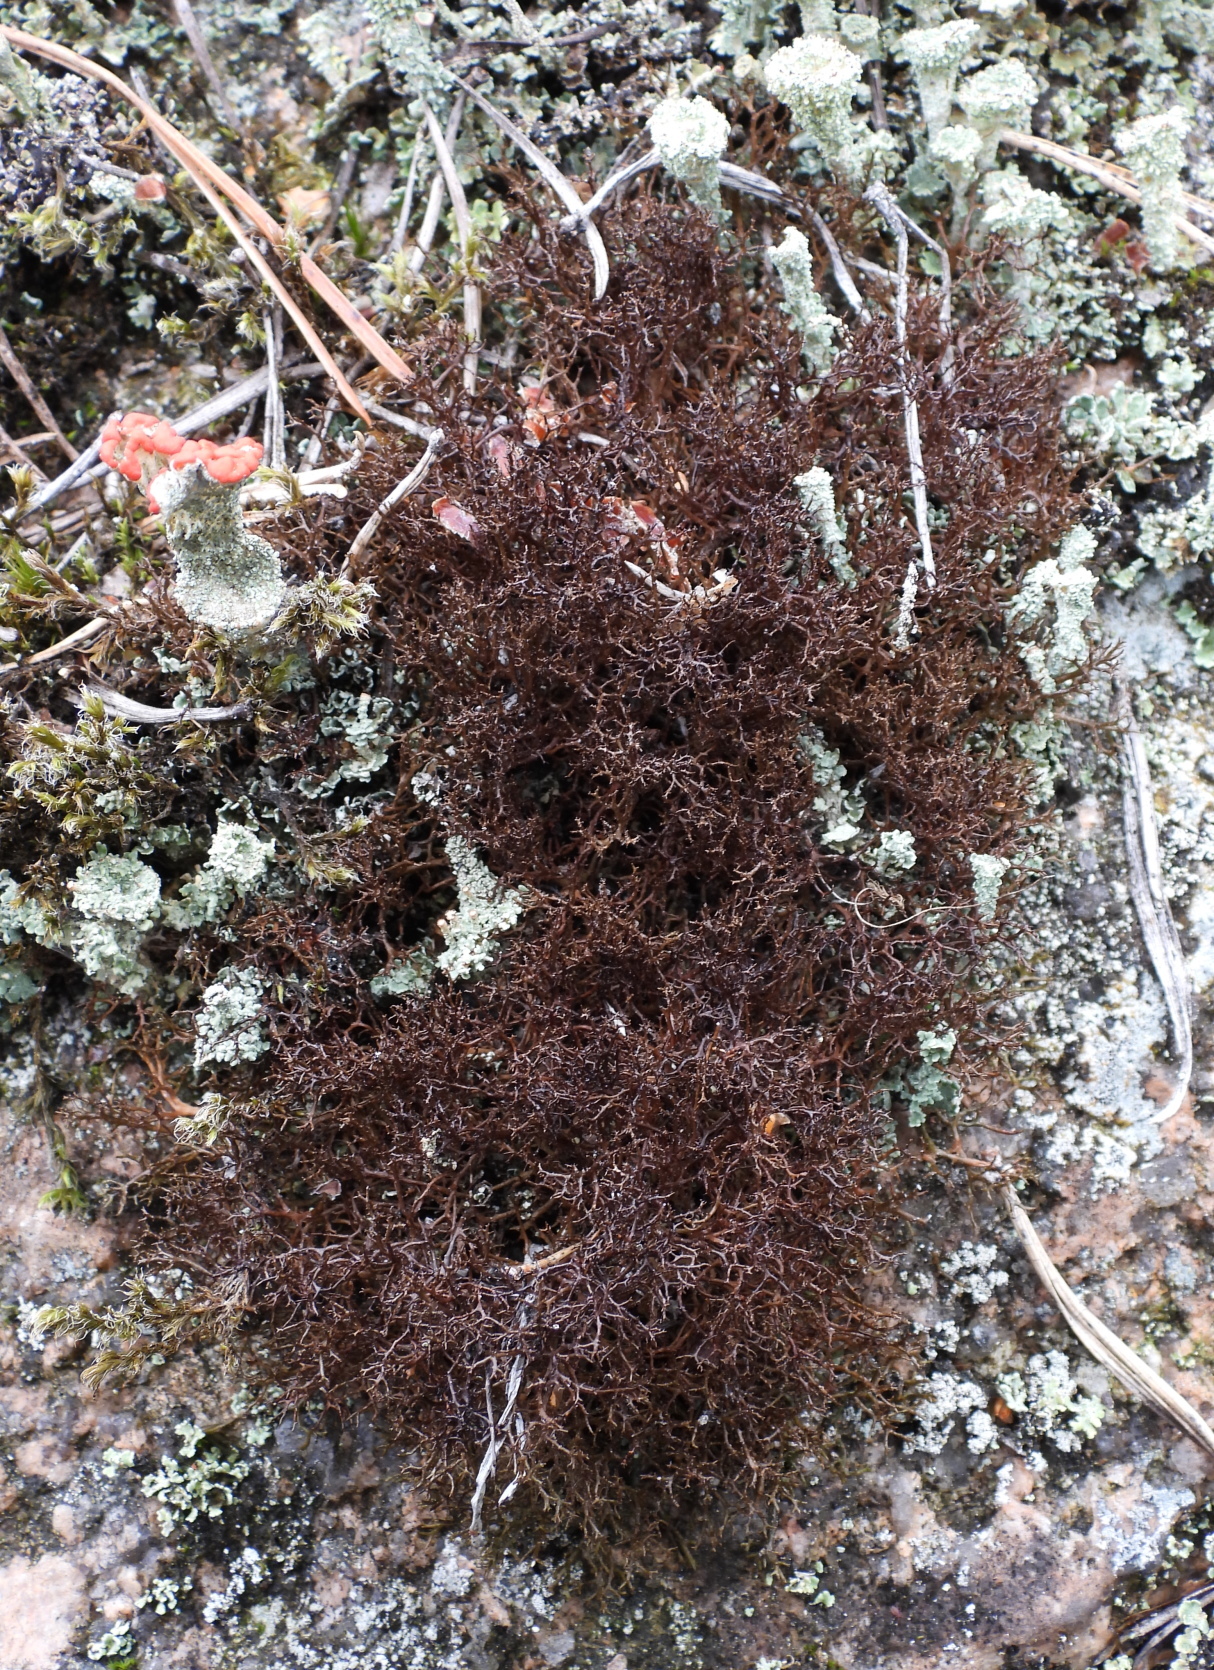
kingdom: Fungi
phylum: Ascomycota
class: Lecanoromycetes
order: Lecanorales
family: Parmeliaceae
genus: Cetraria
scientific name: Cetraria muricata
